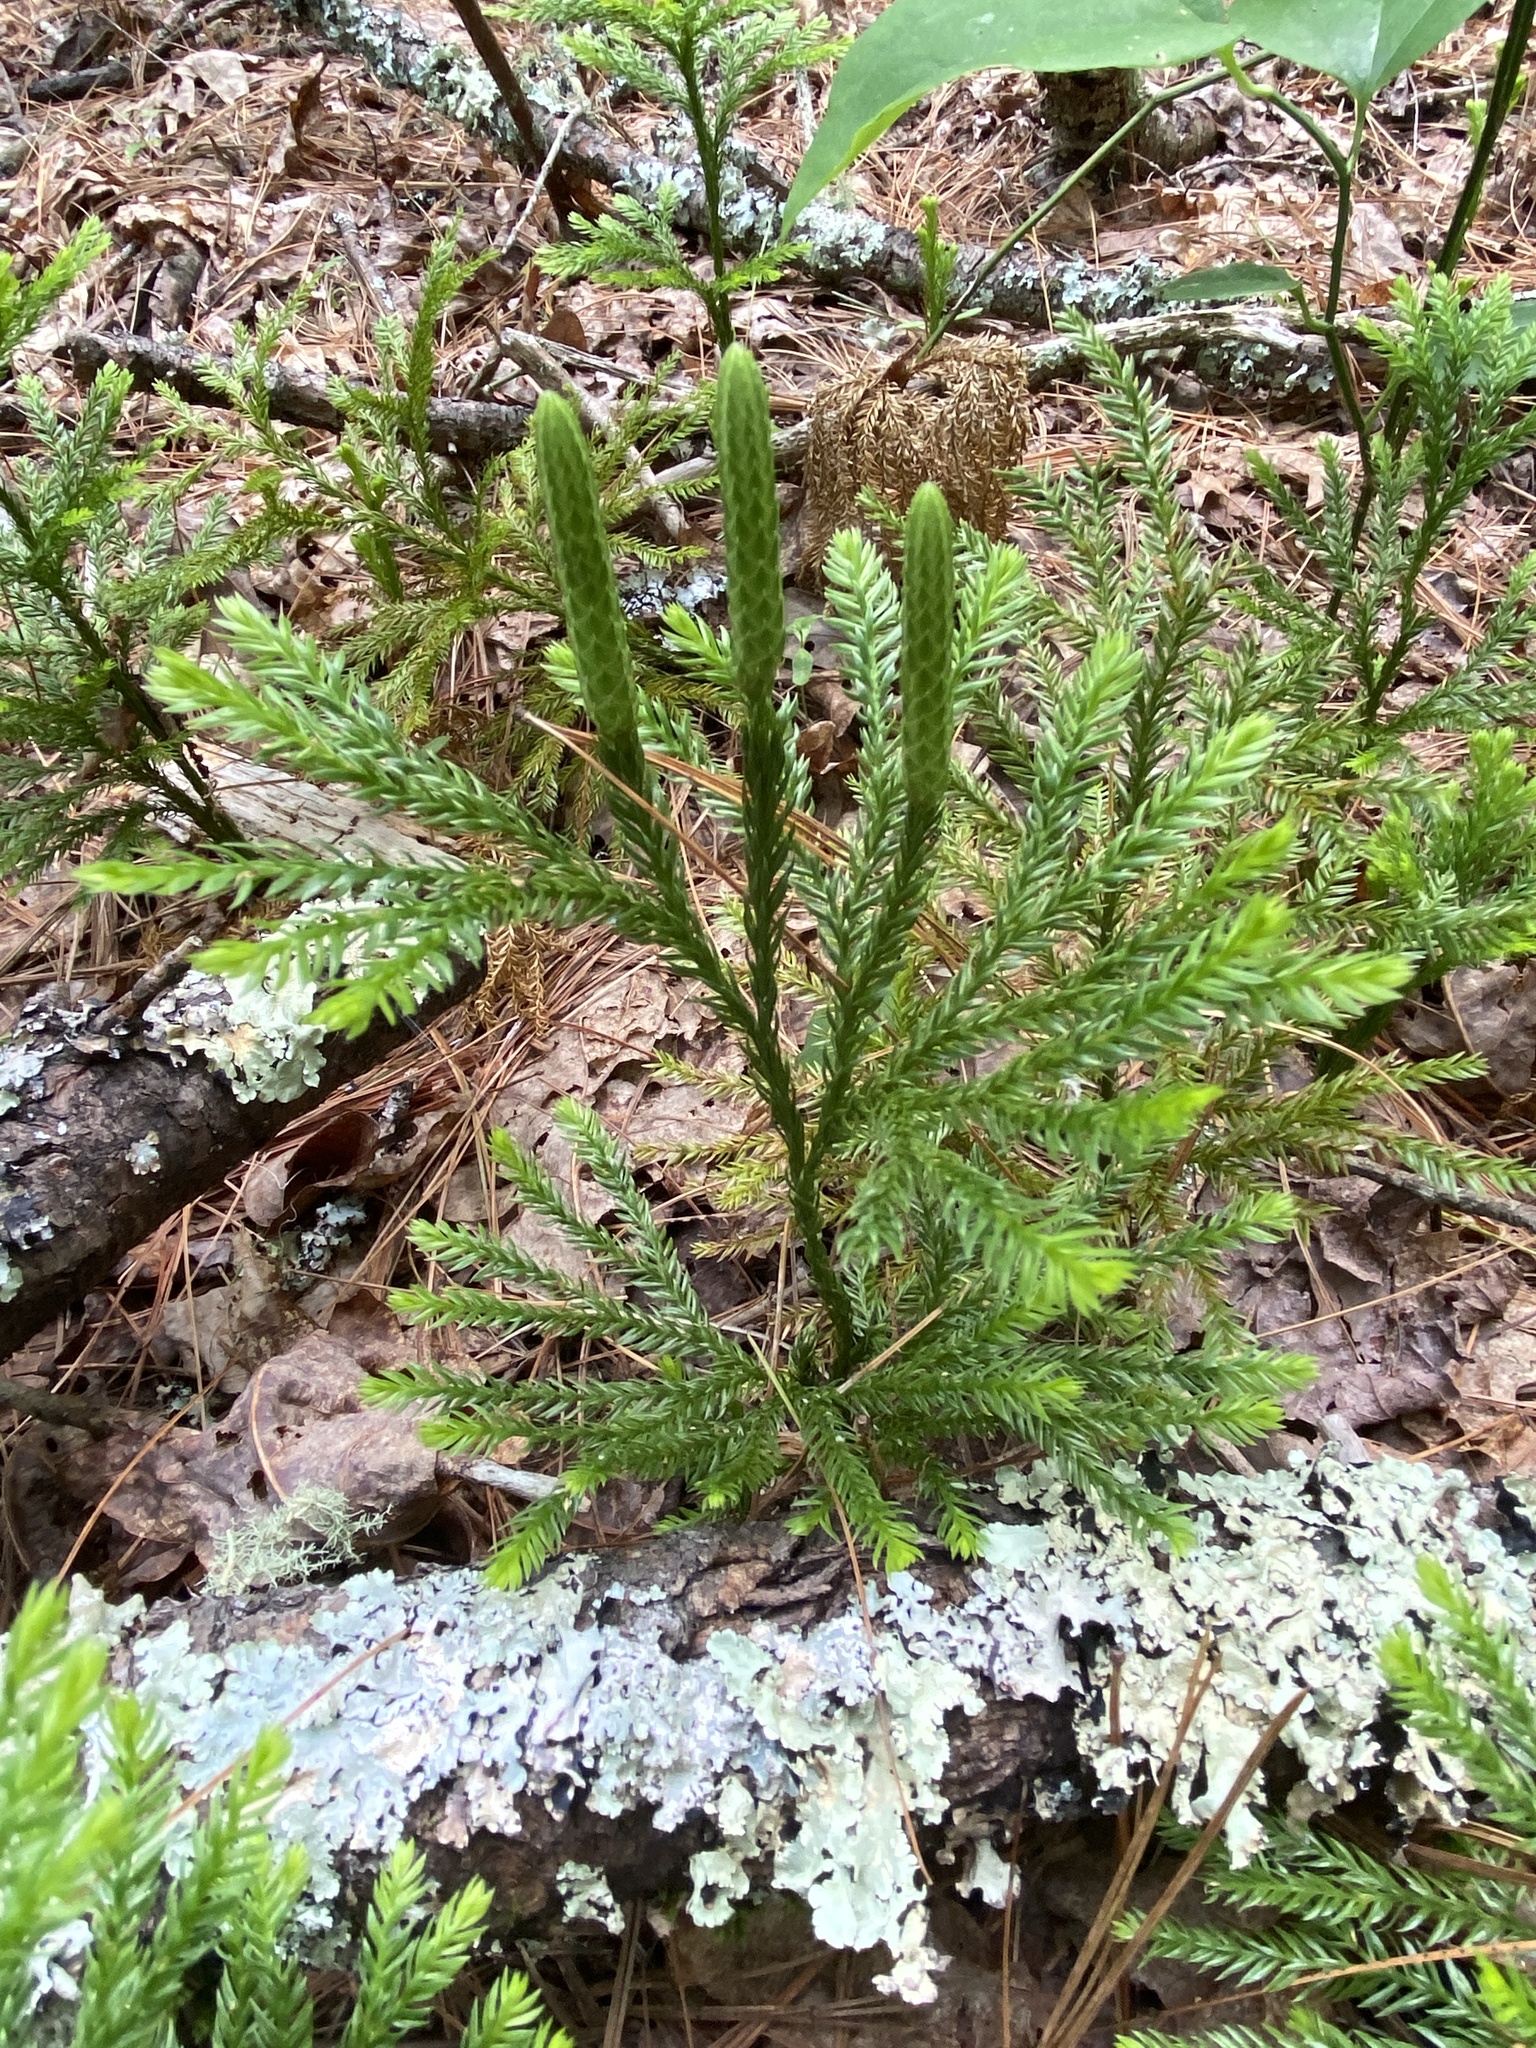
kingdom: Plantae
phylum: Tracheophyta
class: Lycopodiopsida
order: Lycopodiales
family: Lycopodiaceae
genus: Dendrolycopodium
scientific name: Dendrolycopodium obscurum
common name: Common ground-pine
